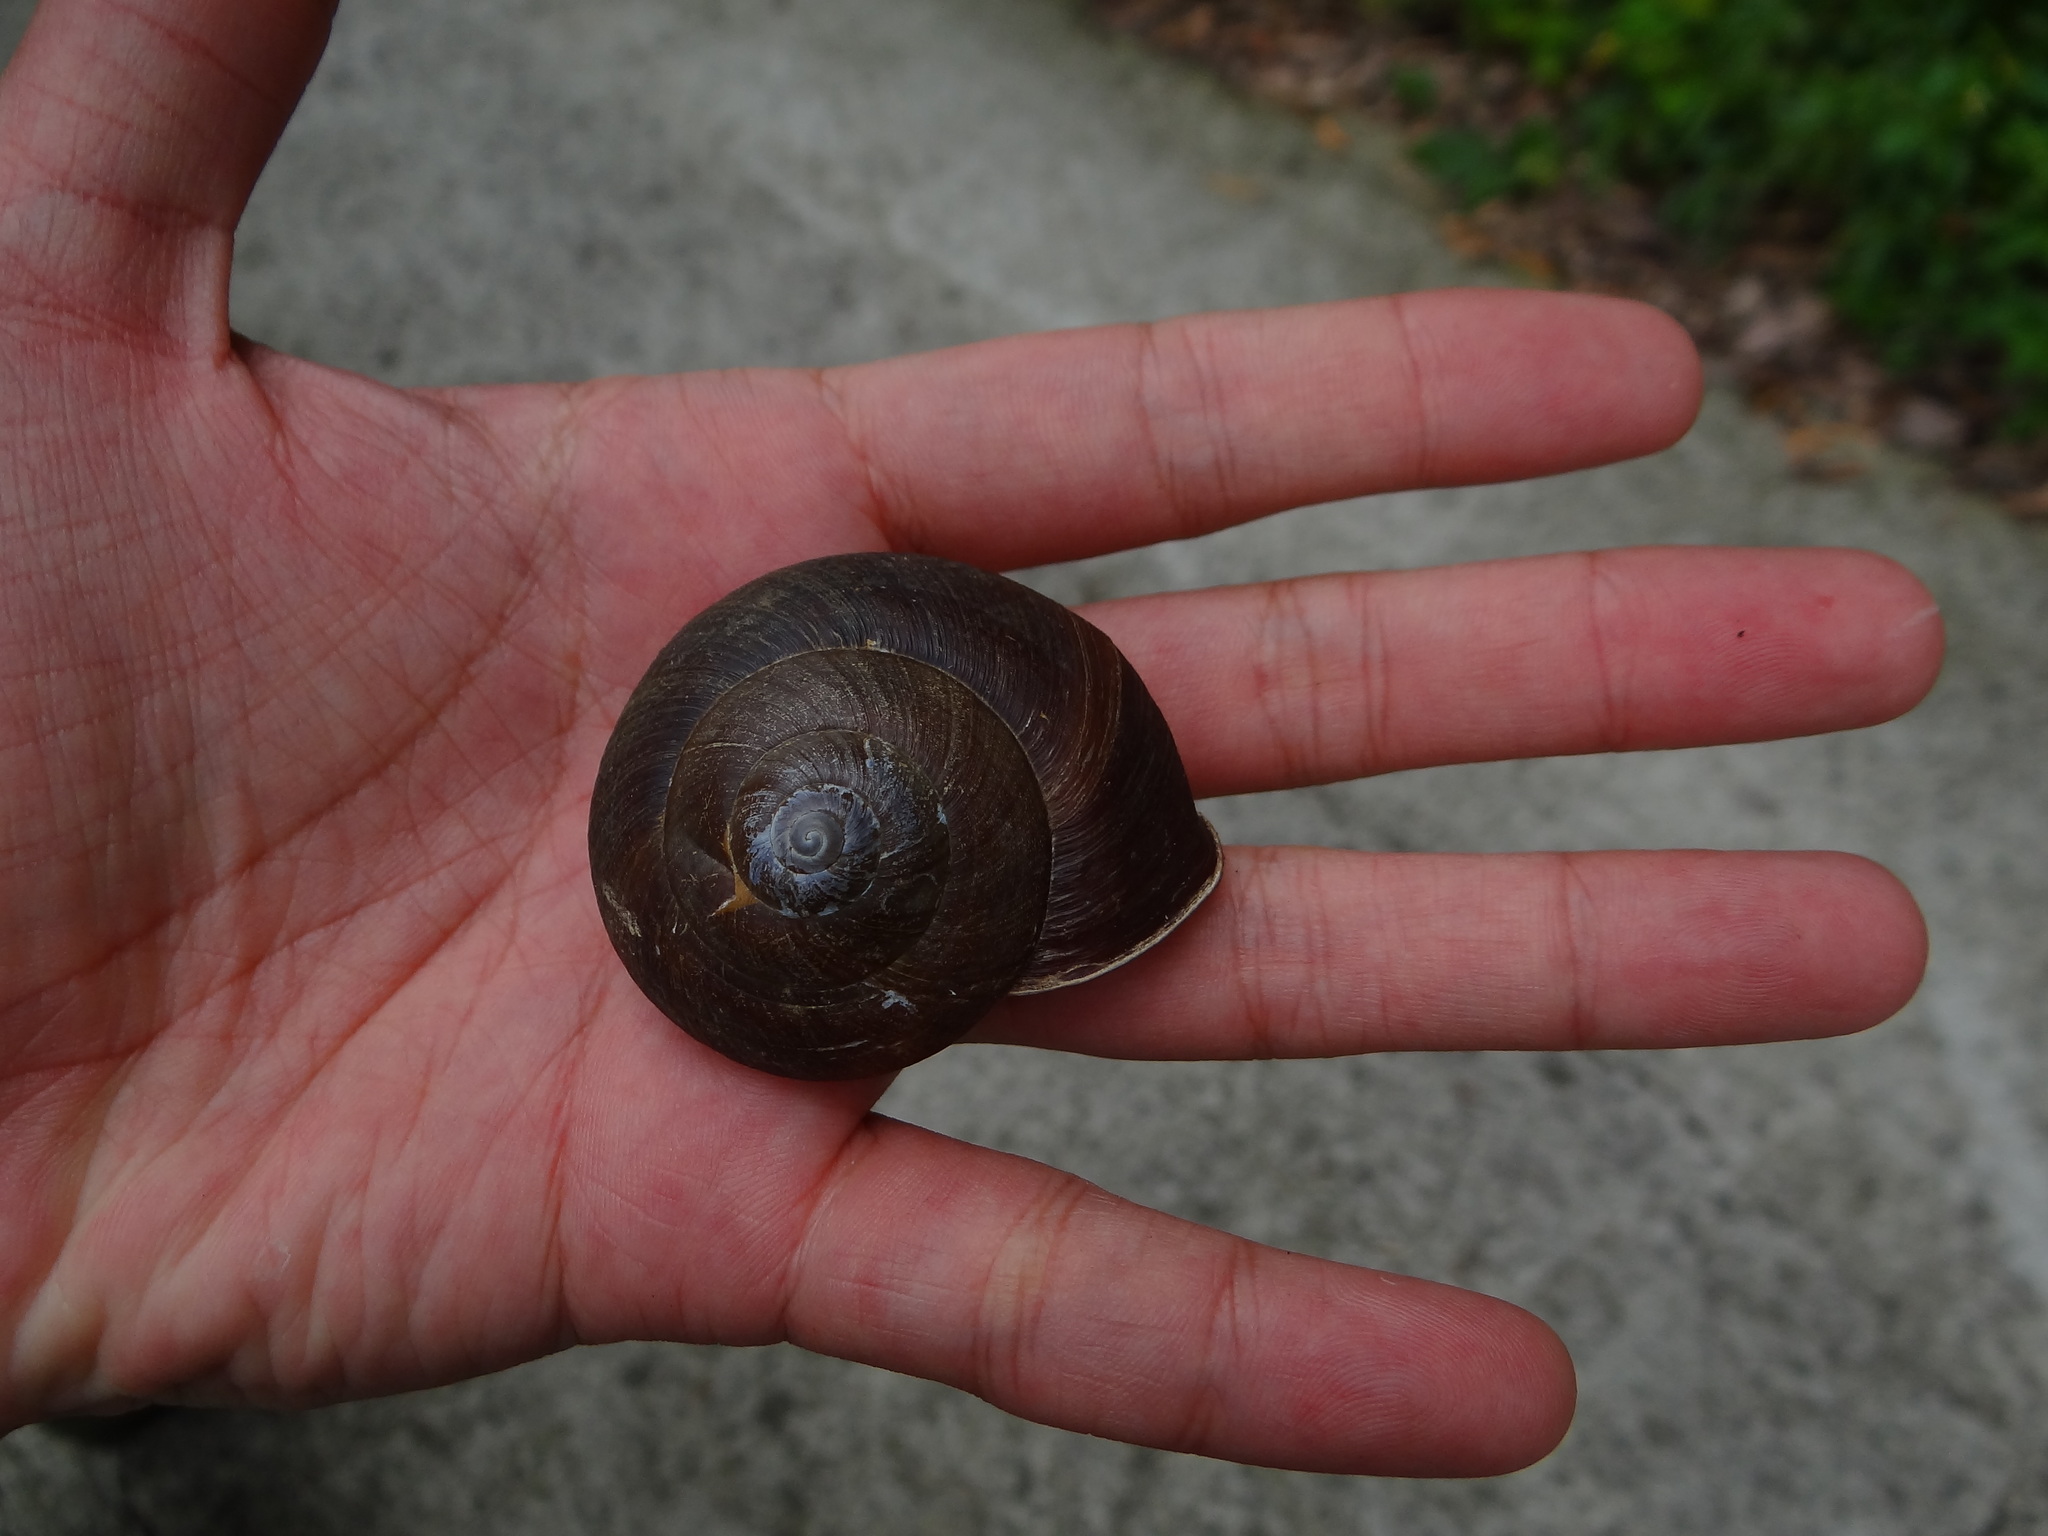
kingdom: Animalia
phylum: Mollusca
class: Gastropoda
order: Stylommatophora
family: Camaenidae
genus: Nesiohelix
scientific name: Nesiohelix swinhoei
